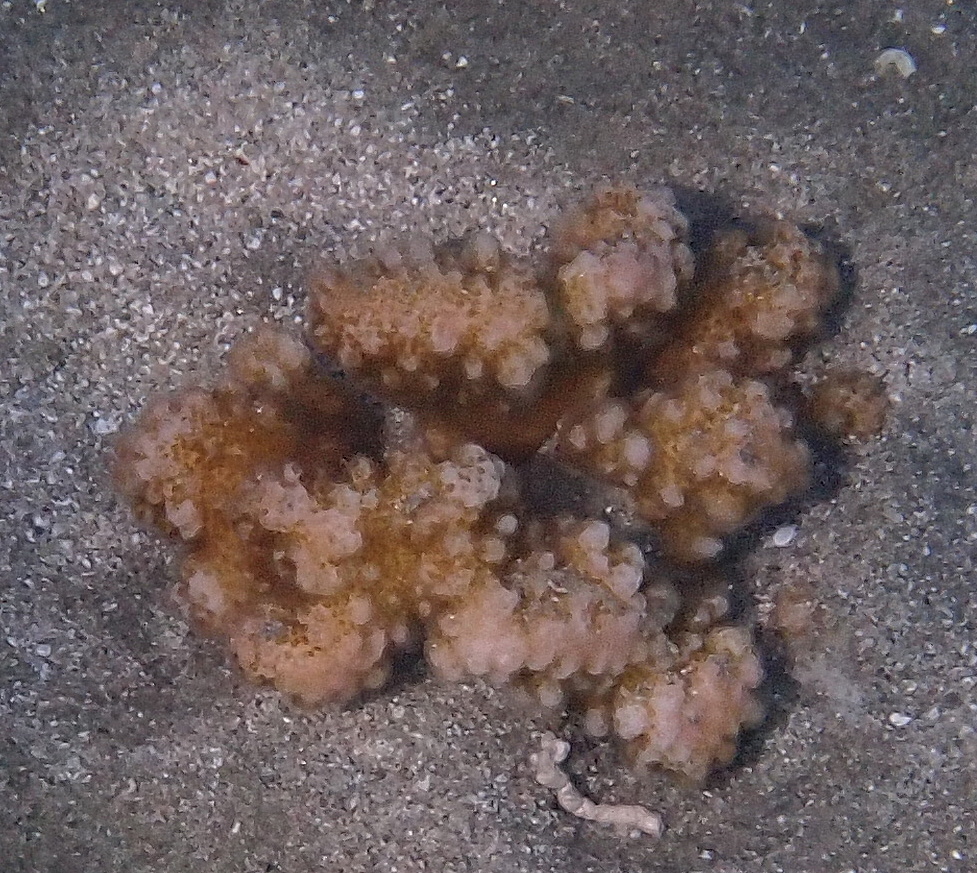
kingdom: Animalia
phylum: Cnidaria
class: Anthozoa
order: Scleractinia
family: Pocilloporidae
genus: Pocillopora
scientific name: Pocillopora verrucosa
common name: Cauliflower coral
